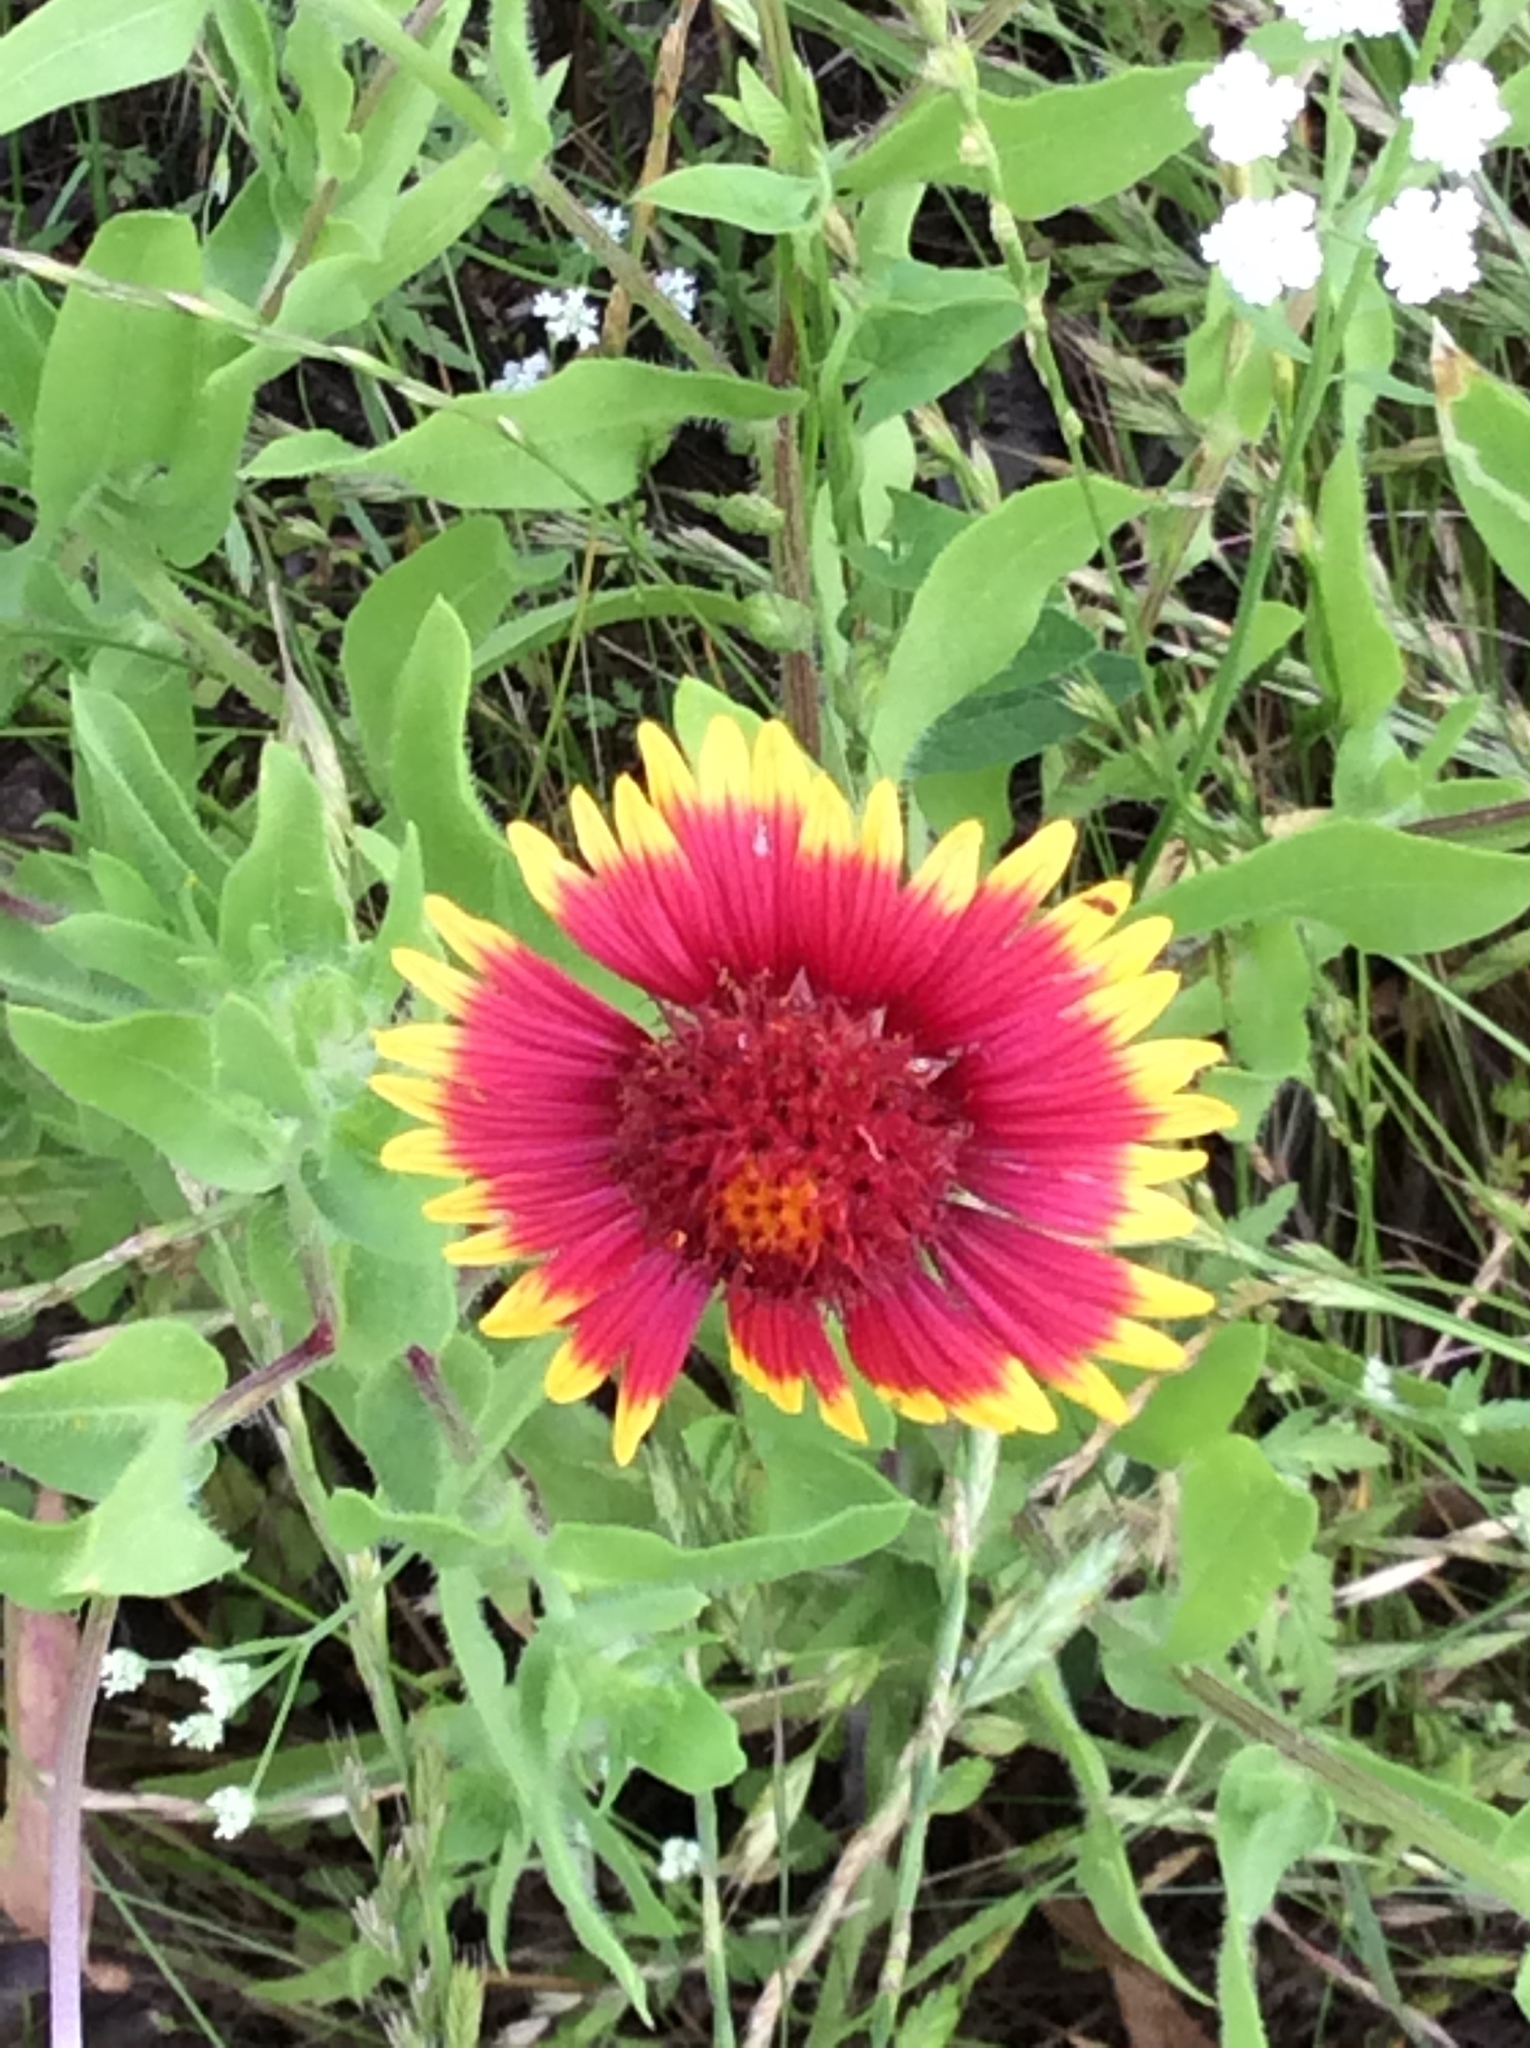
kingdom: Plantae
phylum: Tracheophyta
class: Magnoliopsida
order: Asterales
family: Asteraceae
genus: Gaillardia
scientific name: Gaillardia pulchella
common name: Firewheel
